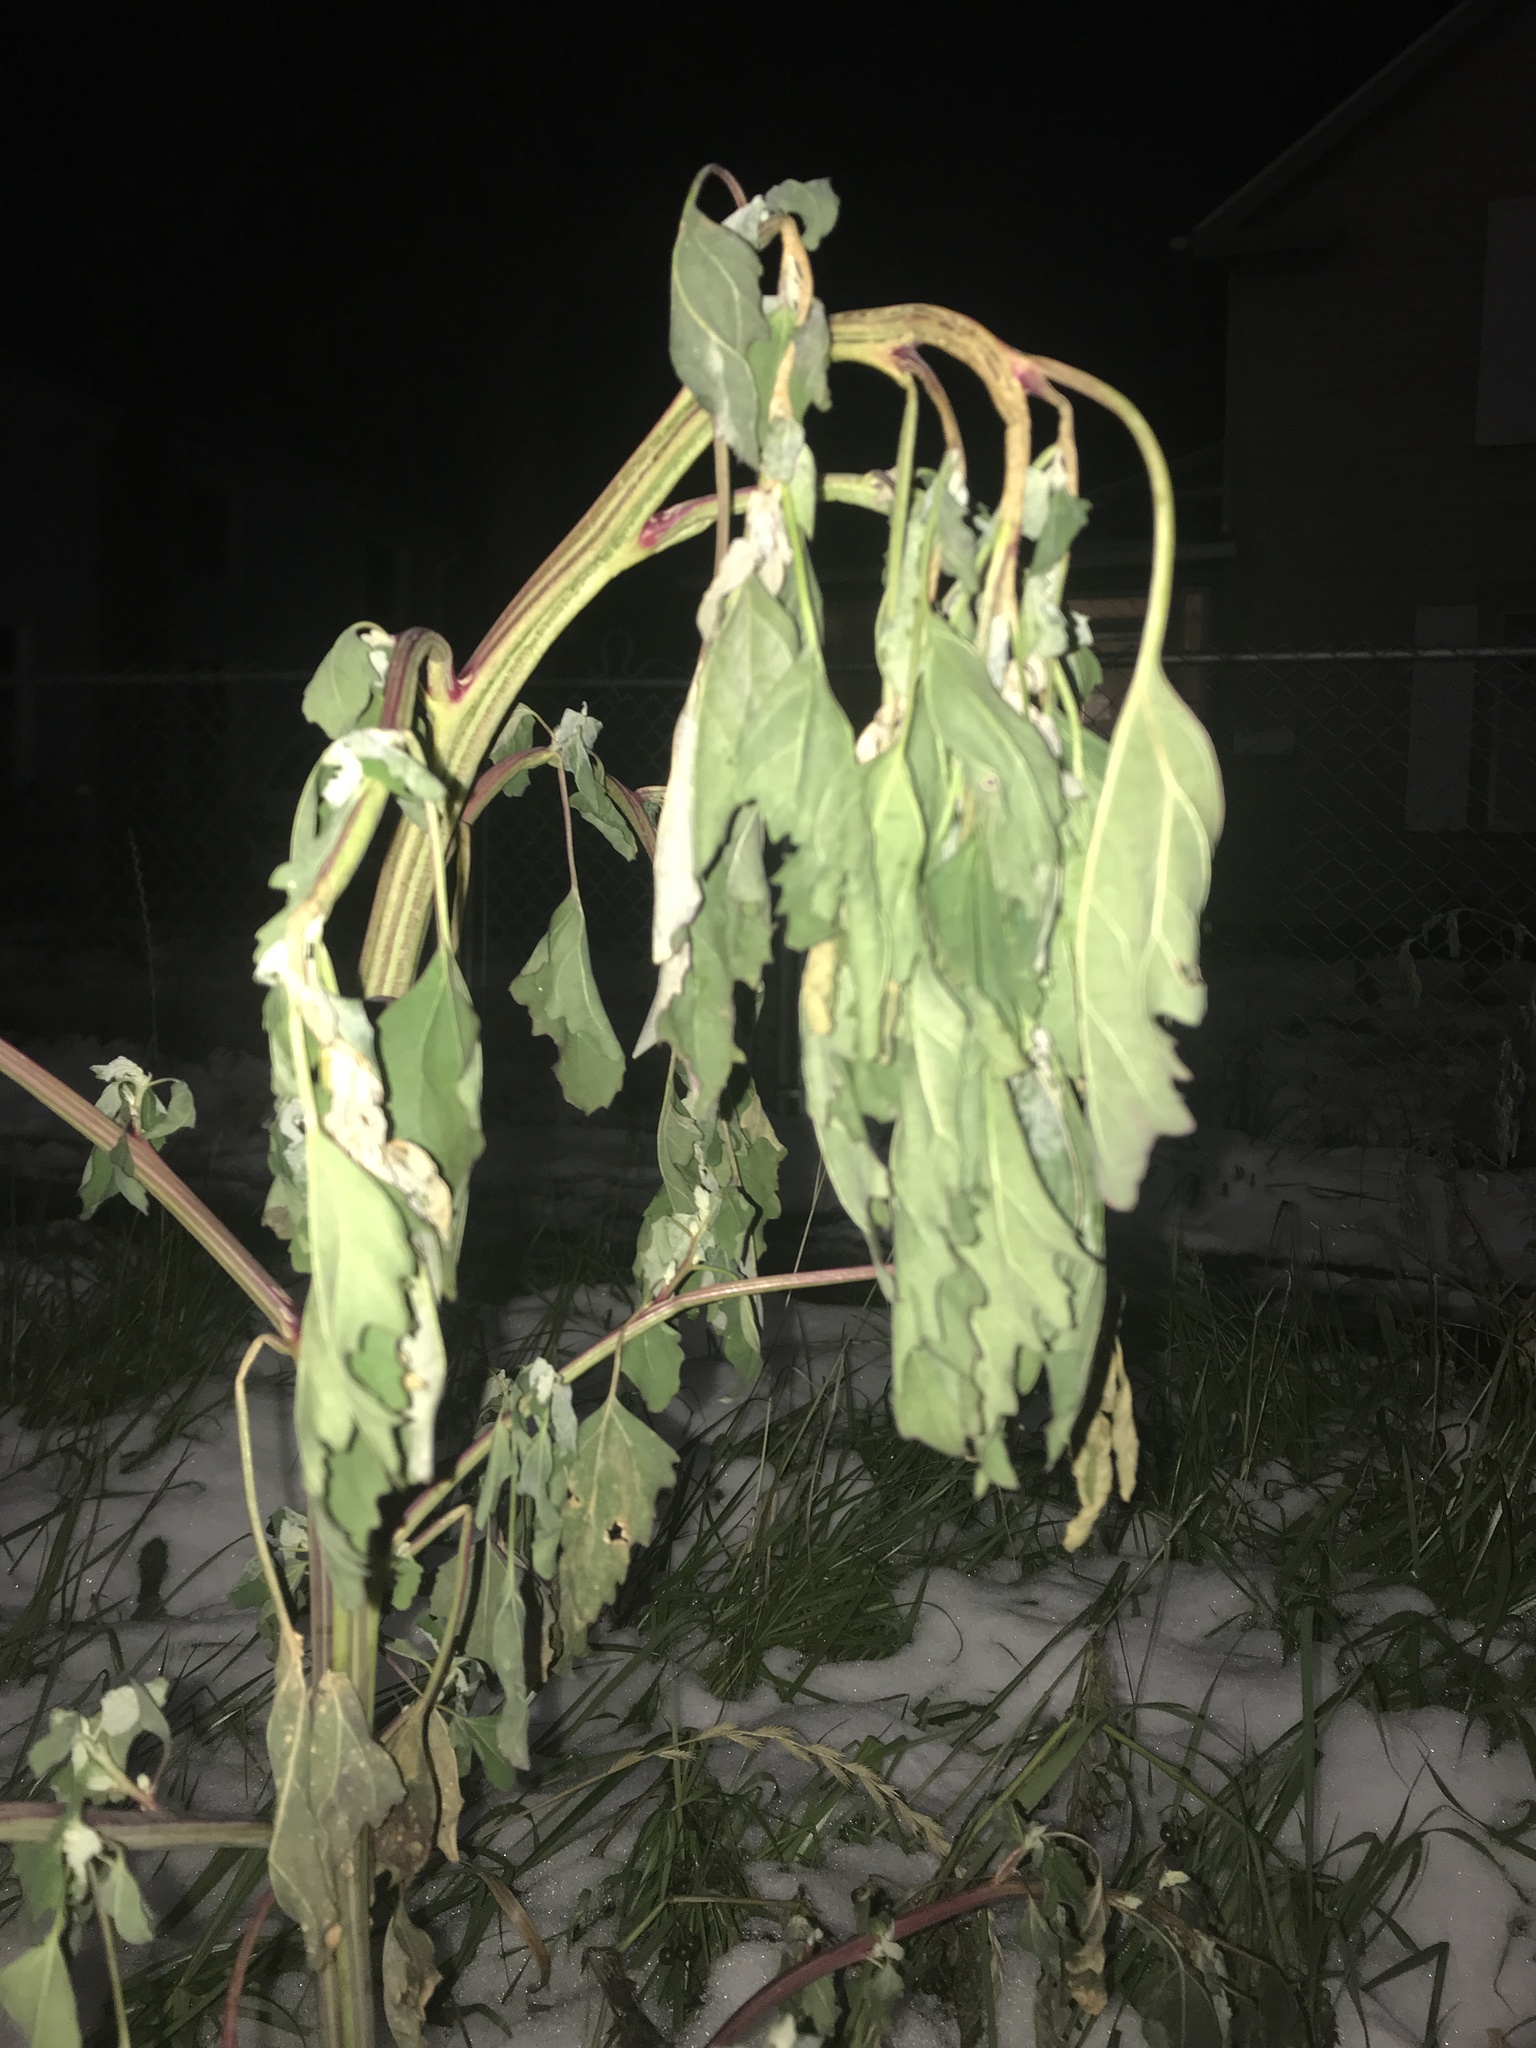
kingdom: Plantae
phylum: Tracheophyta
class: Magnoliopsida
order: Caryophyllales
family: Amaranthaceae
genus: Chenopodium
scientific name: Chenopodium album
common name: Fat-hen
